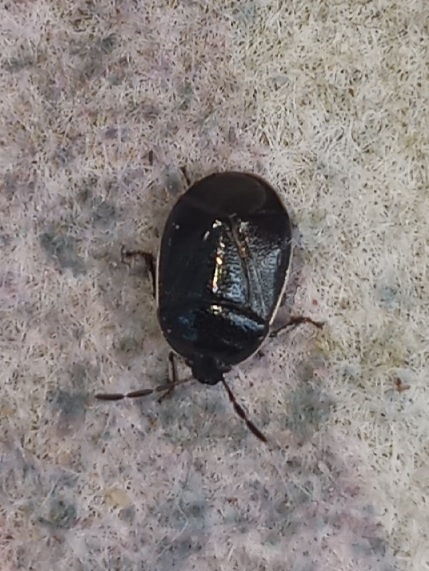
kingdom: Animalia
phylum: Arthropoda
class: Insecta
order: Hemiptera
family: Cydnidae
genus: Sehirus
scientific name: Sehirus cinctus
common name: White-margined burrower bug
